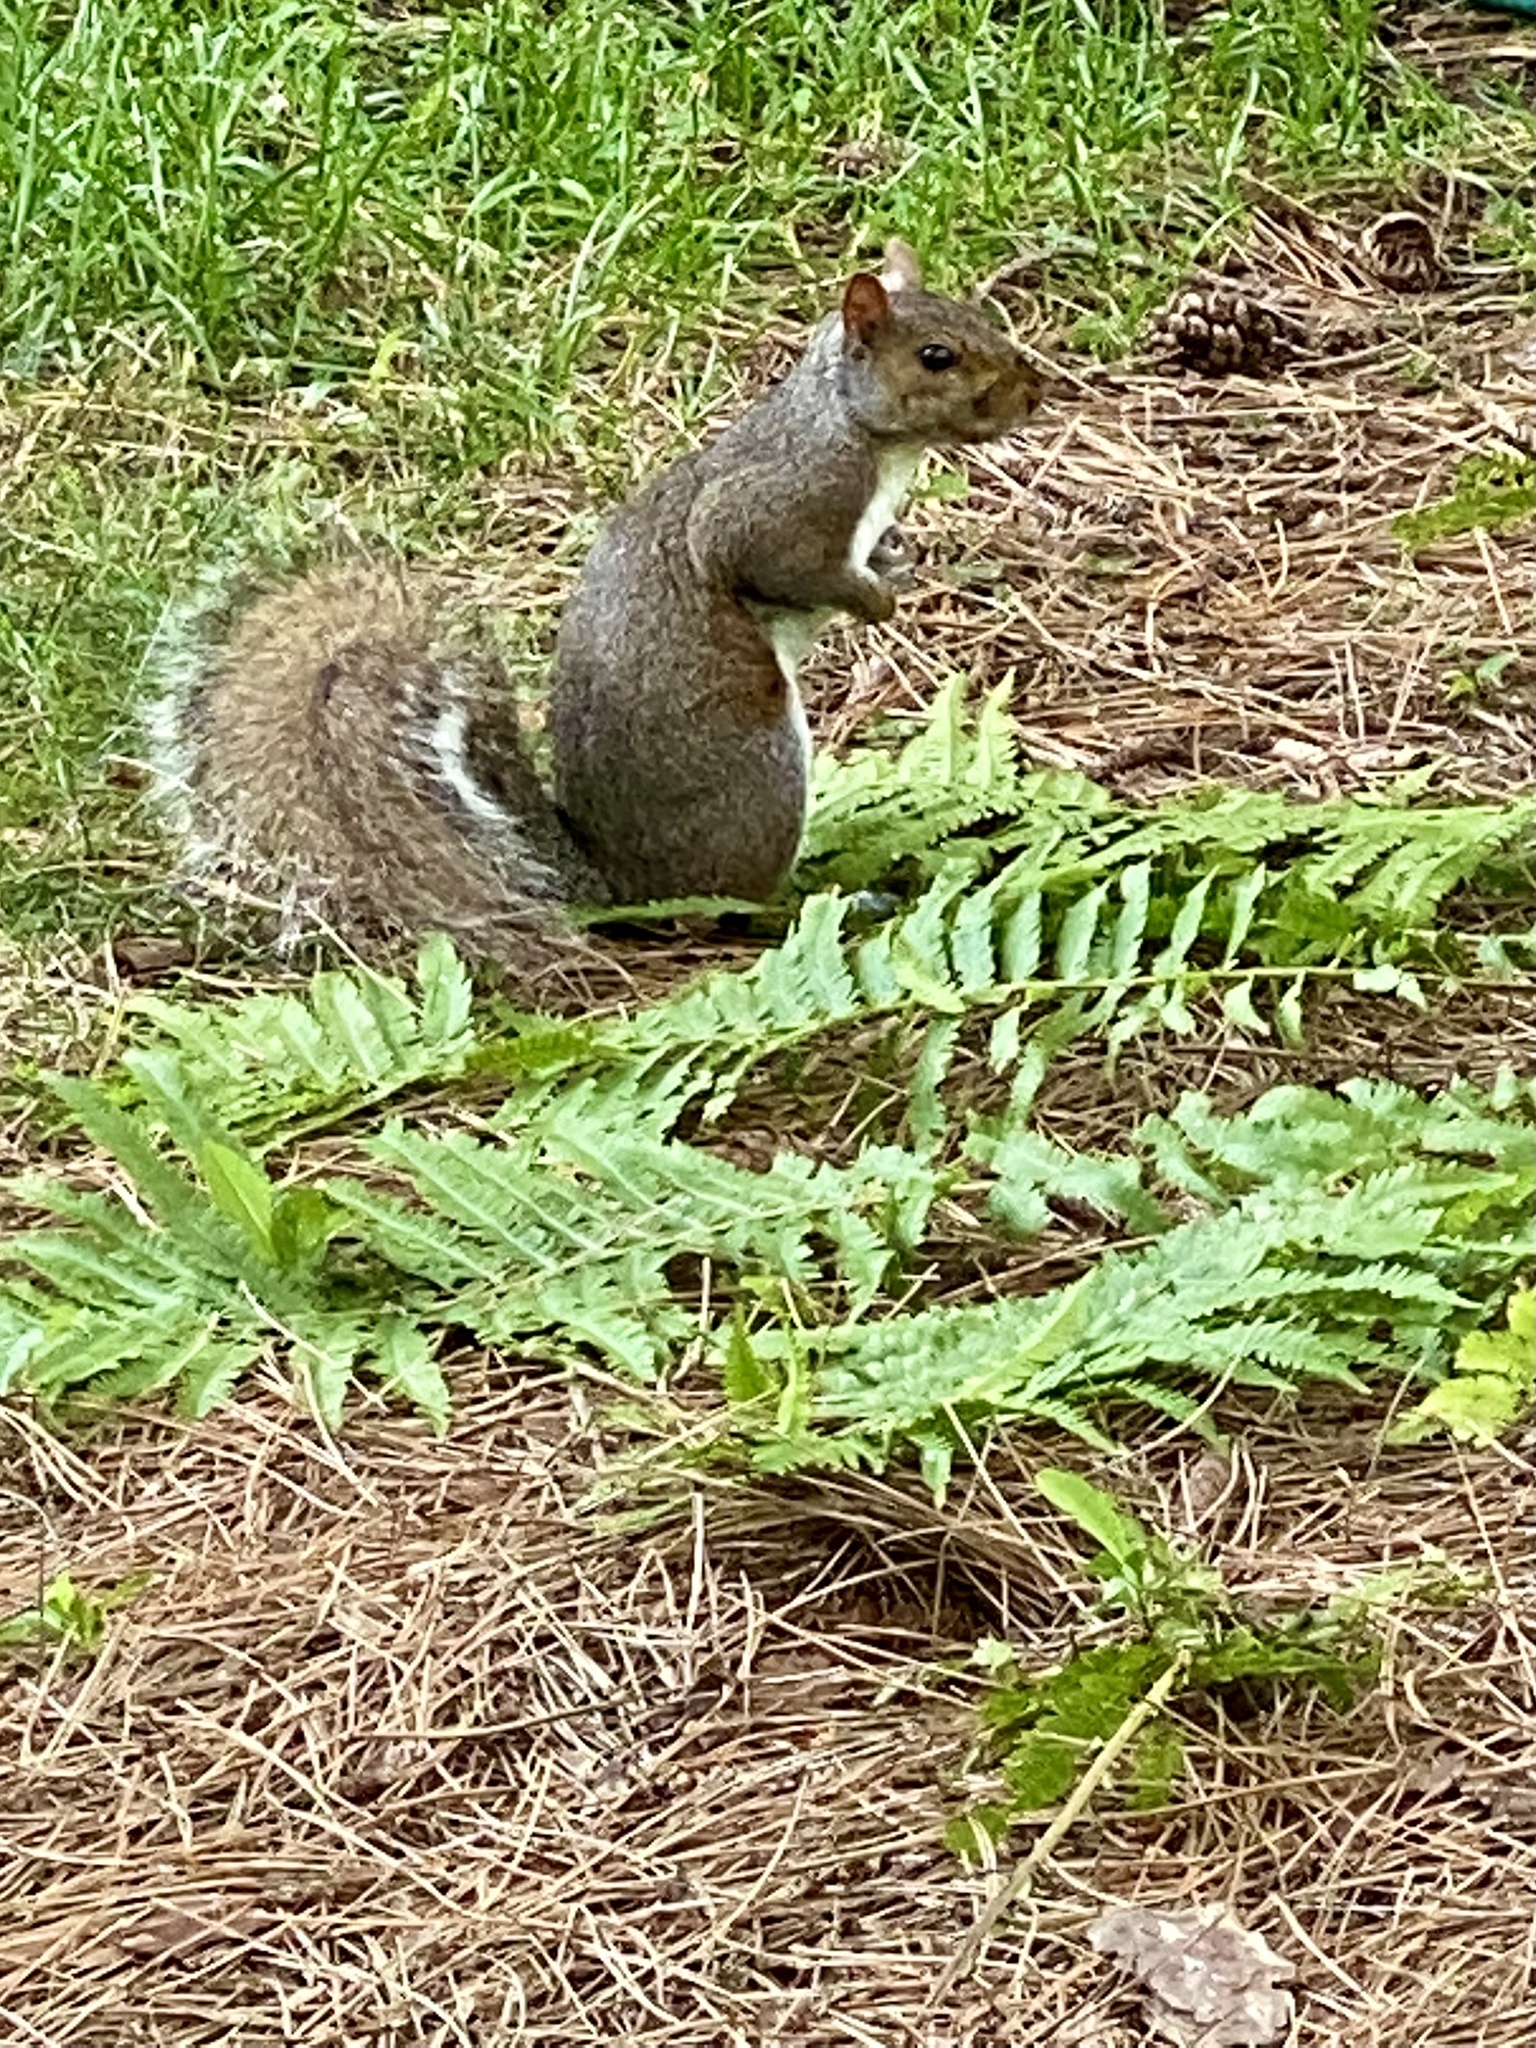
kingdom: Animalia
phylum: Chordata
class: Mammalia
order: Rodentia
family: Sciuridae
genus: Sciurus
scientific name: Sciurus carolinensis
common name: Eastern gray squirrel
